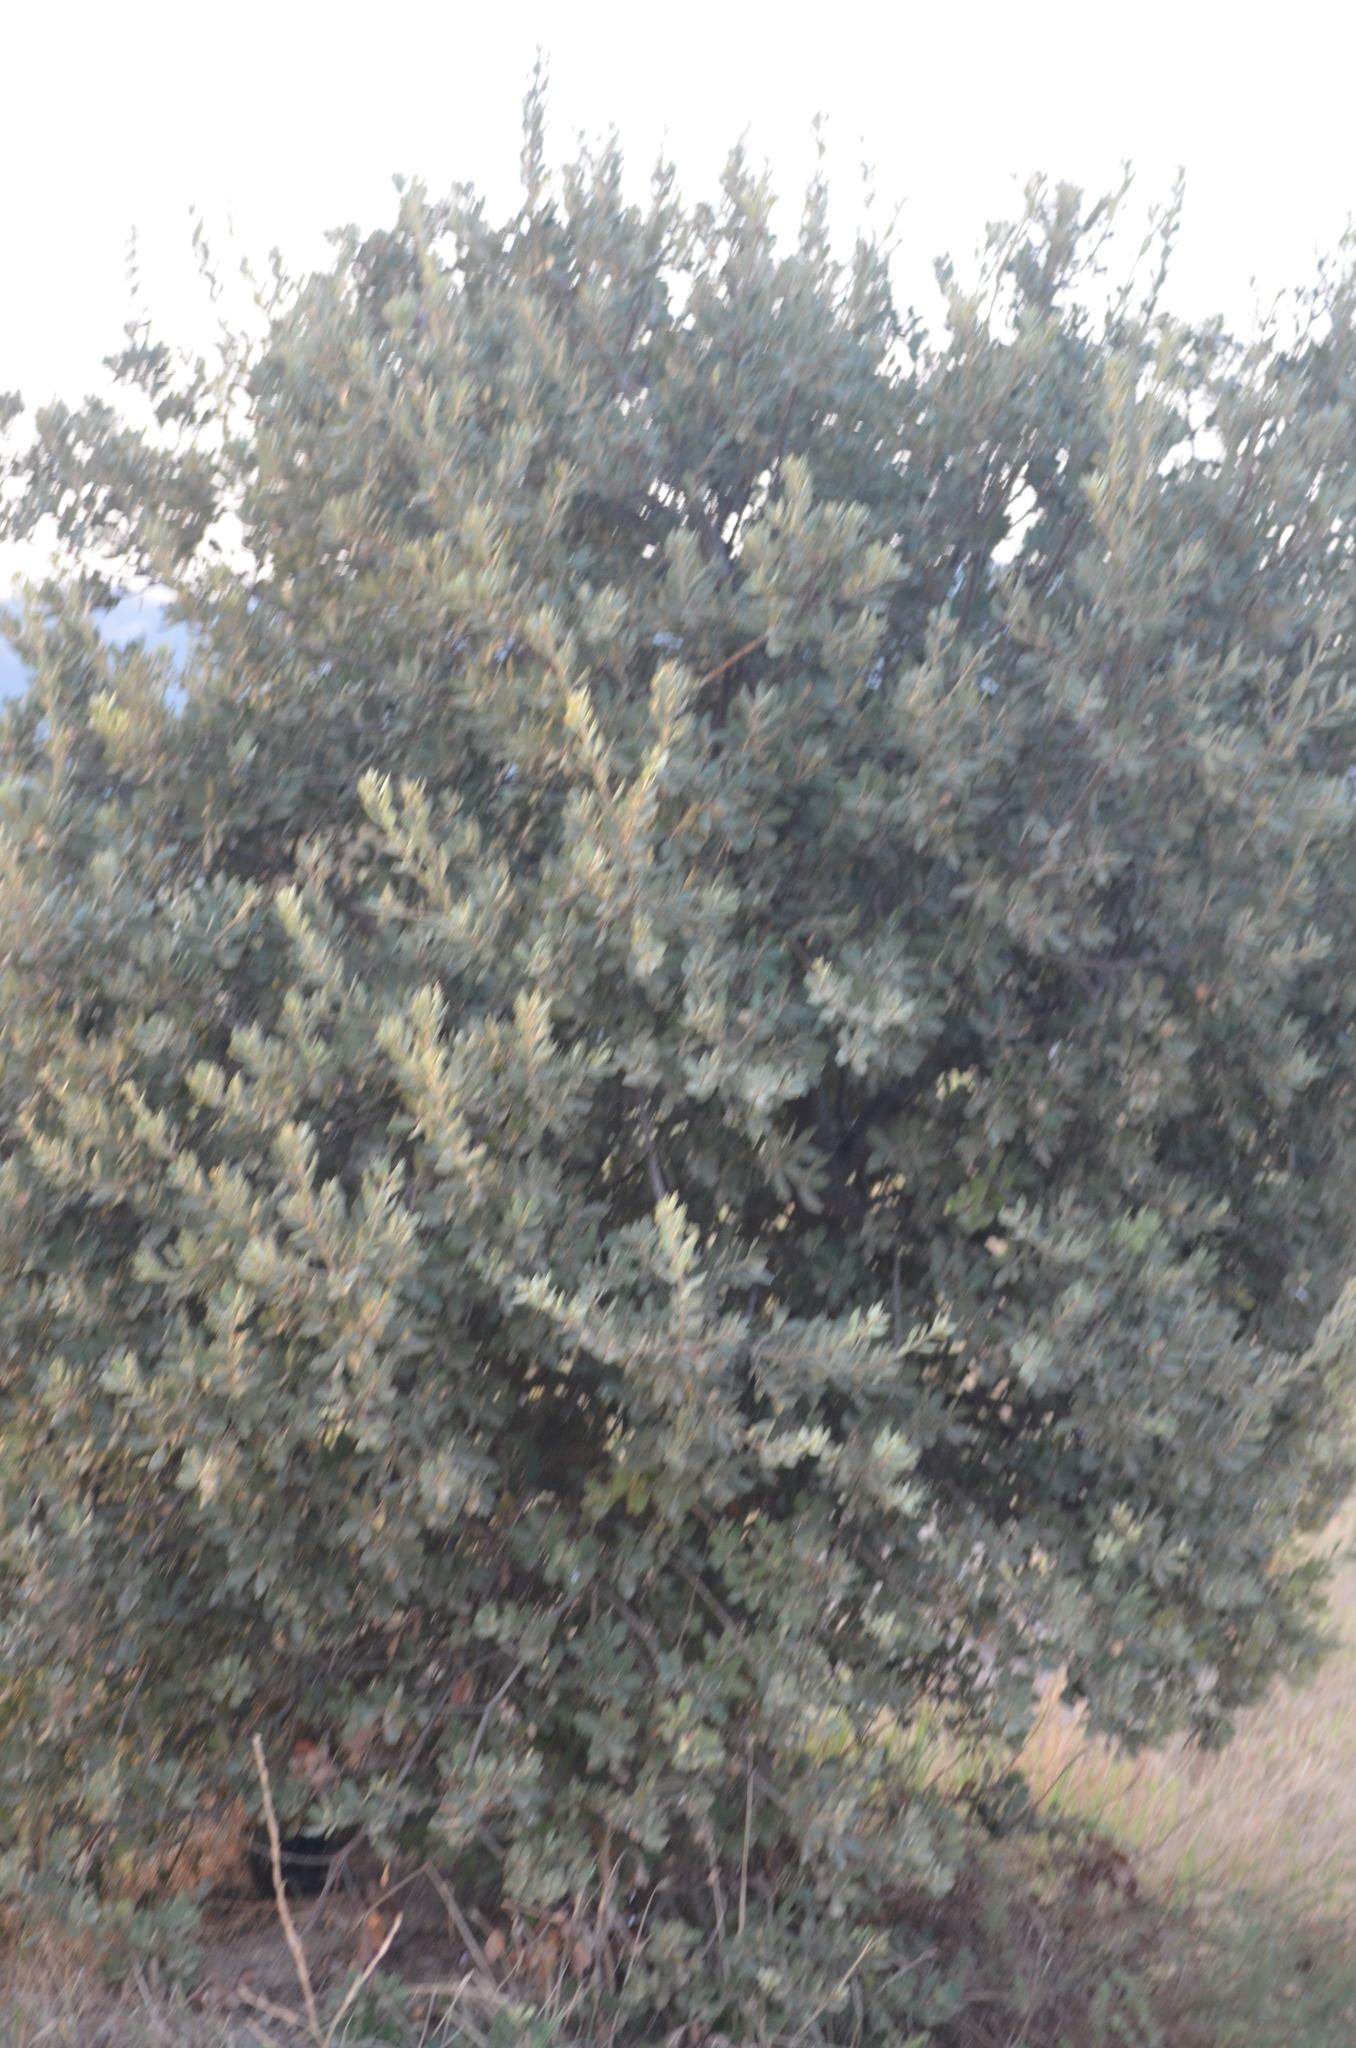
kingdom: Plantae
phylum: Tracheophyta
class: Magnoliopsida
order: Fagales
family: Fagaceae
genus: Quercus
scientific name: Quercus rotundifolia
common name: Holm oak
